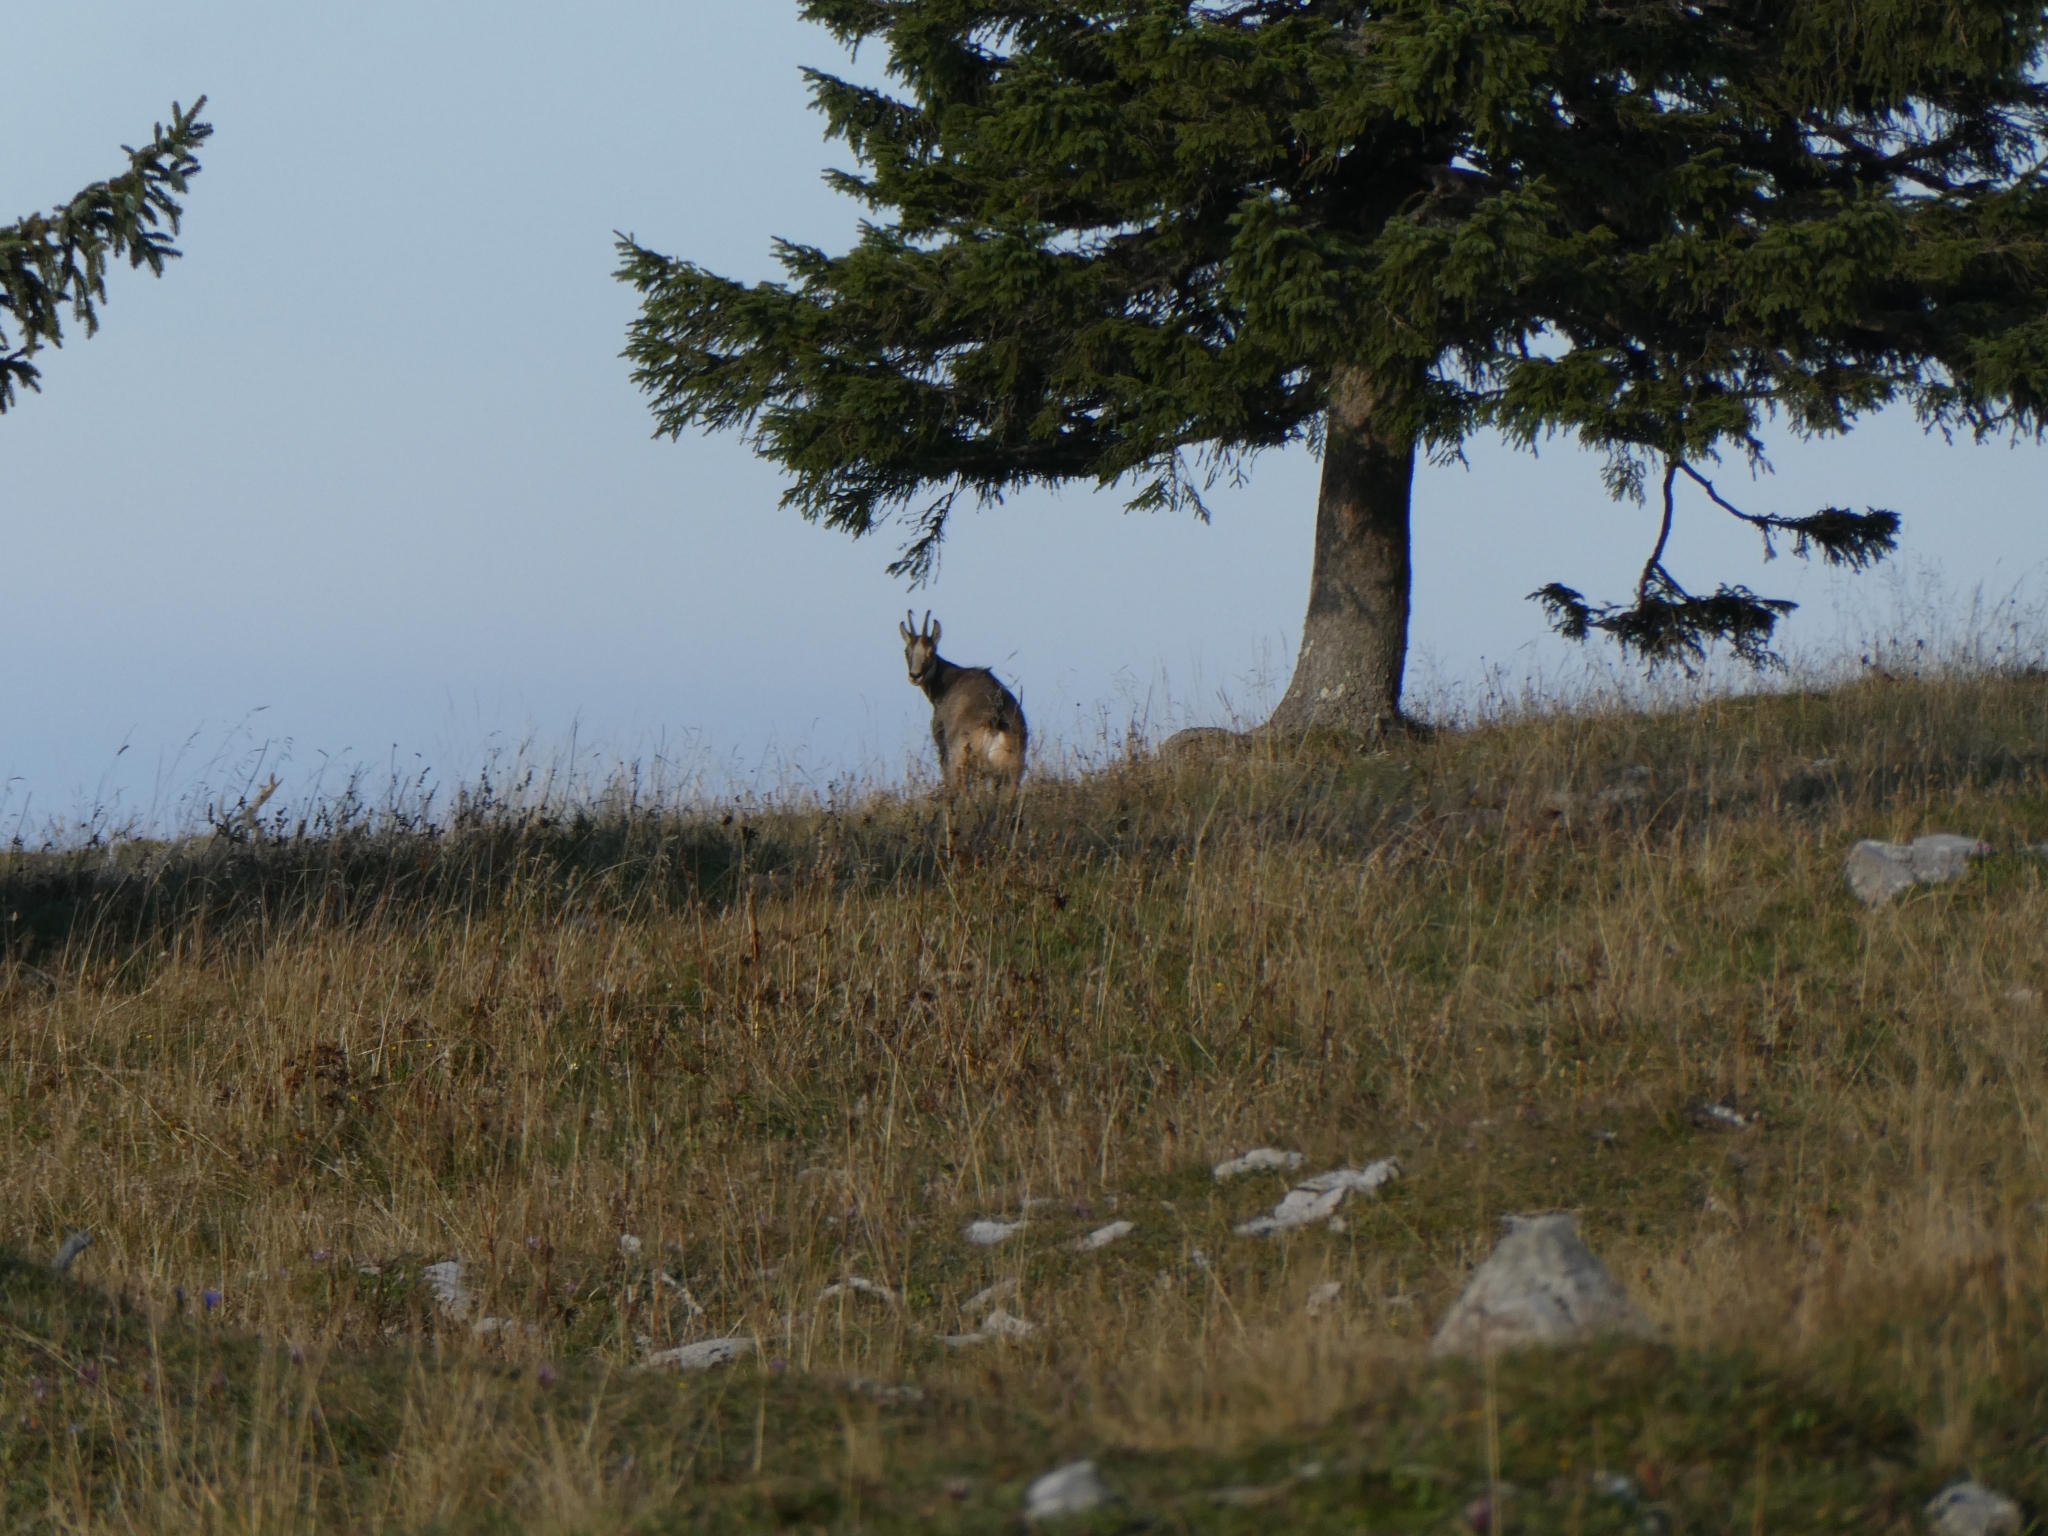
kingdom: Animalia
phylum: Chordata
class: Mammalia
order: Artiodactyla
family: Bovidae
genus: Rupicapra
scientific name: Rupicapra rupicapra
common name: Chamois
